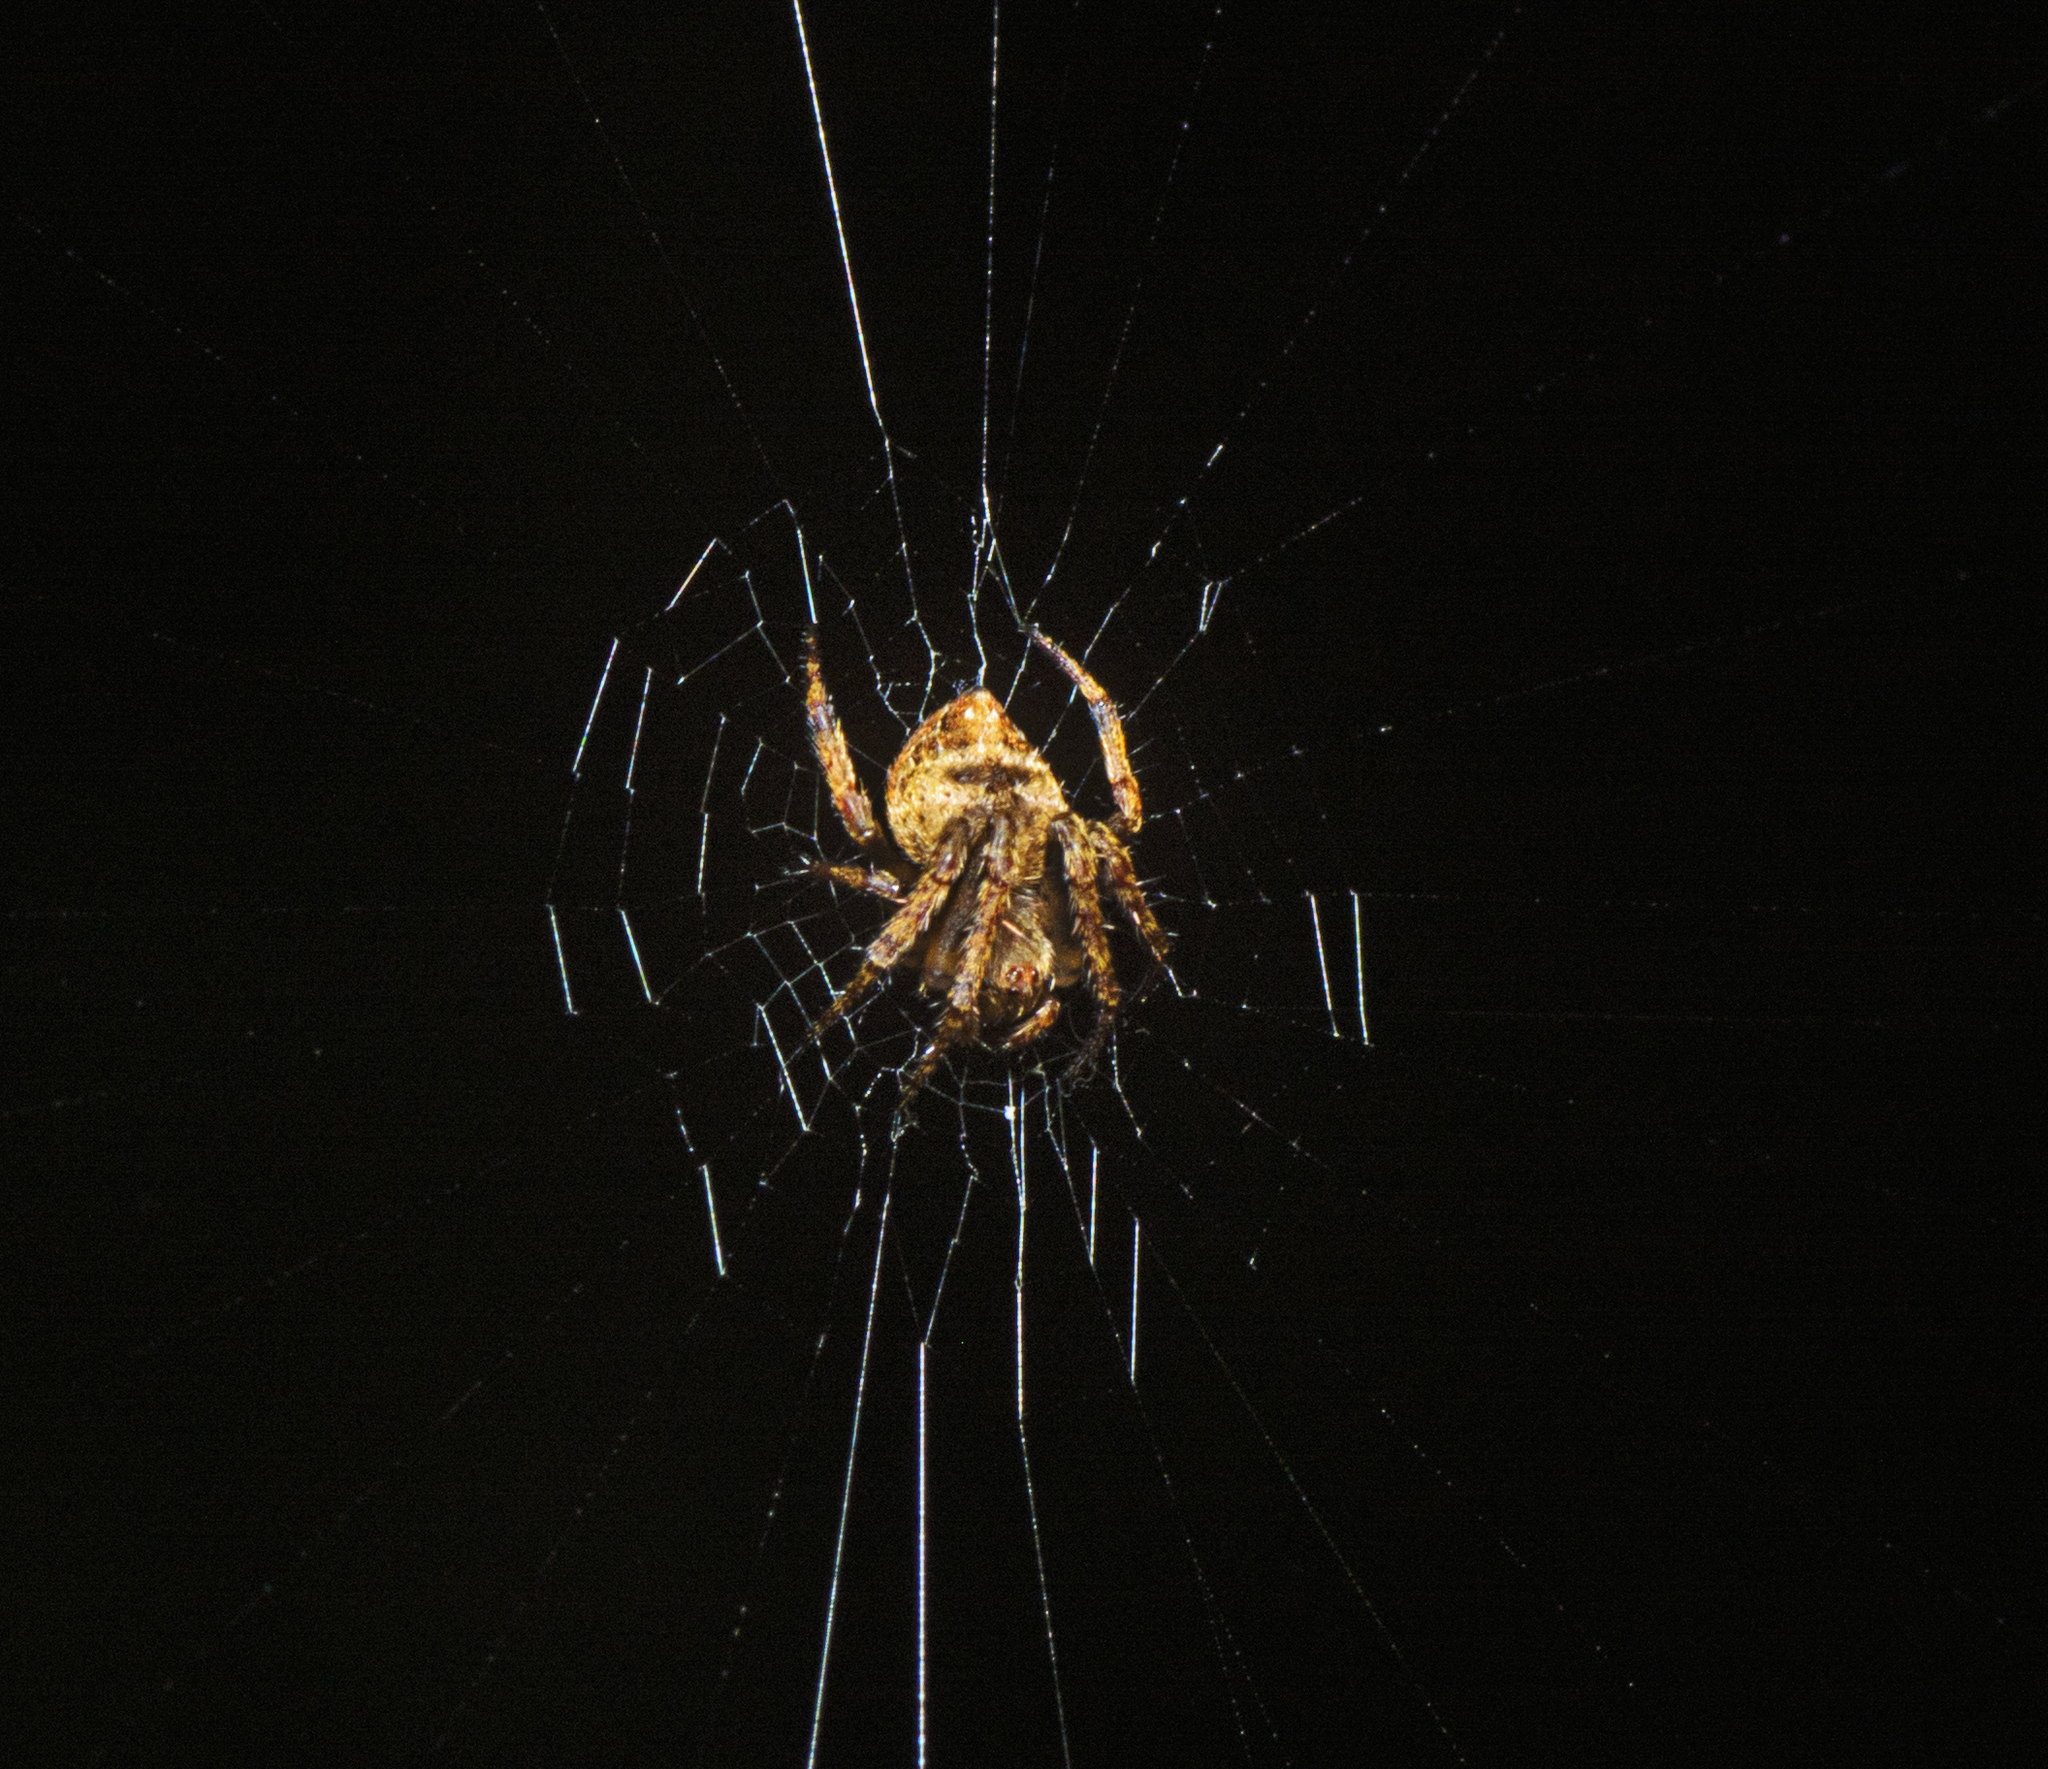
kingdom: Animalia
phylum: Arthropoda
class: Arachnida
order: Araneae
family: Araneidae
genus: Araneus
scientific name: Araneus acuminatus
